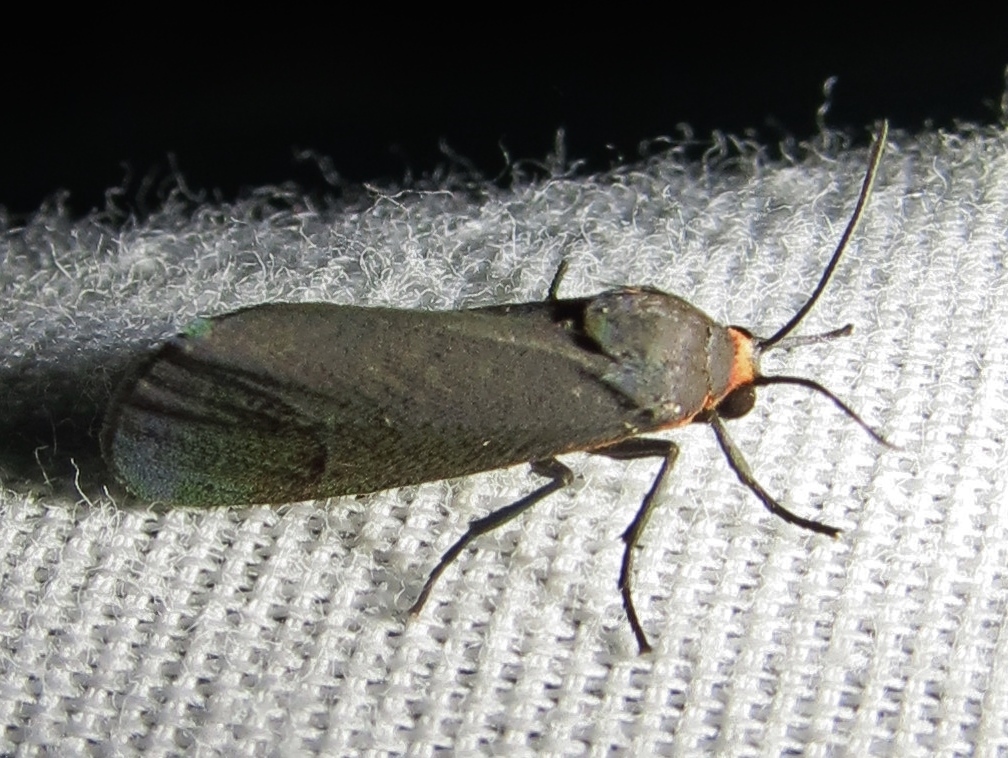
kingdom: Animalia
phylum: Arthropoda
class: Insecta
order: Lepidoptera
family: Erebidae
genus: Virbia
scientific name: Virbia laeta
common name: Joyful holomelina moth
